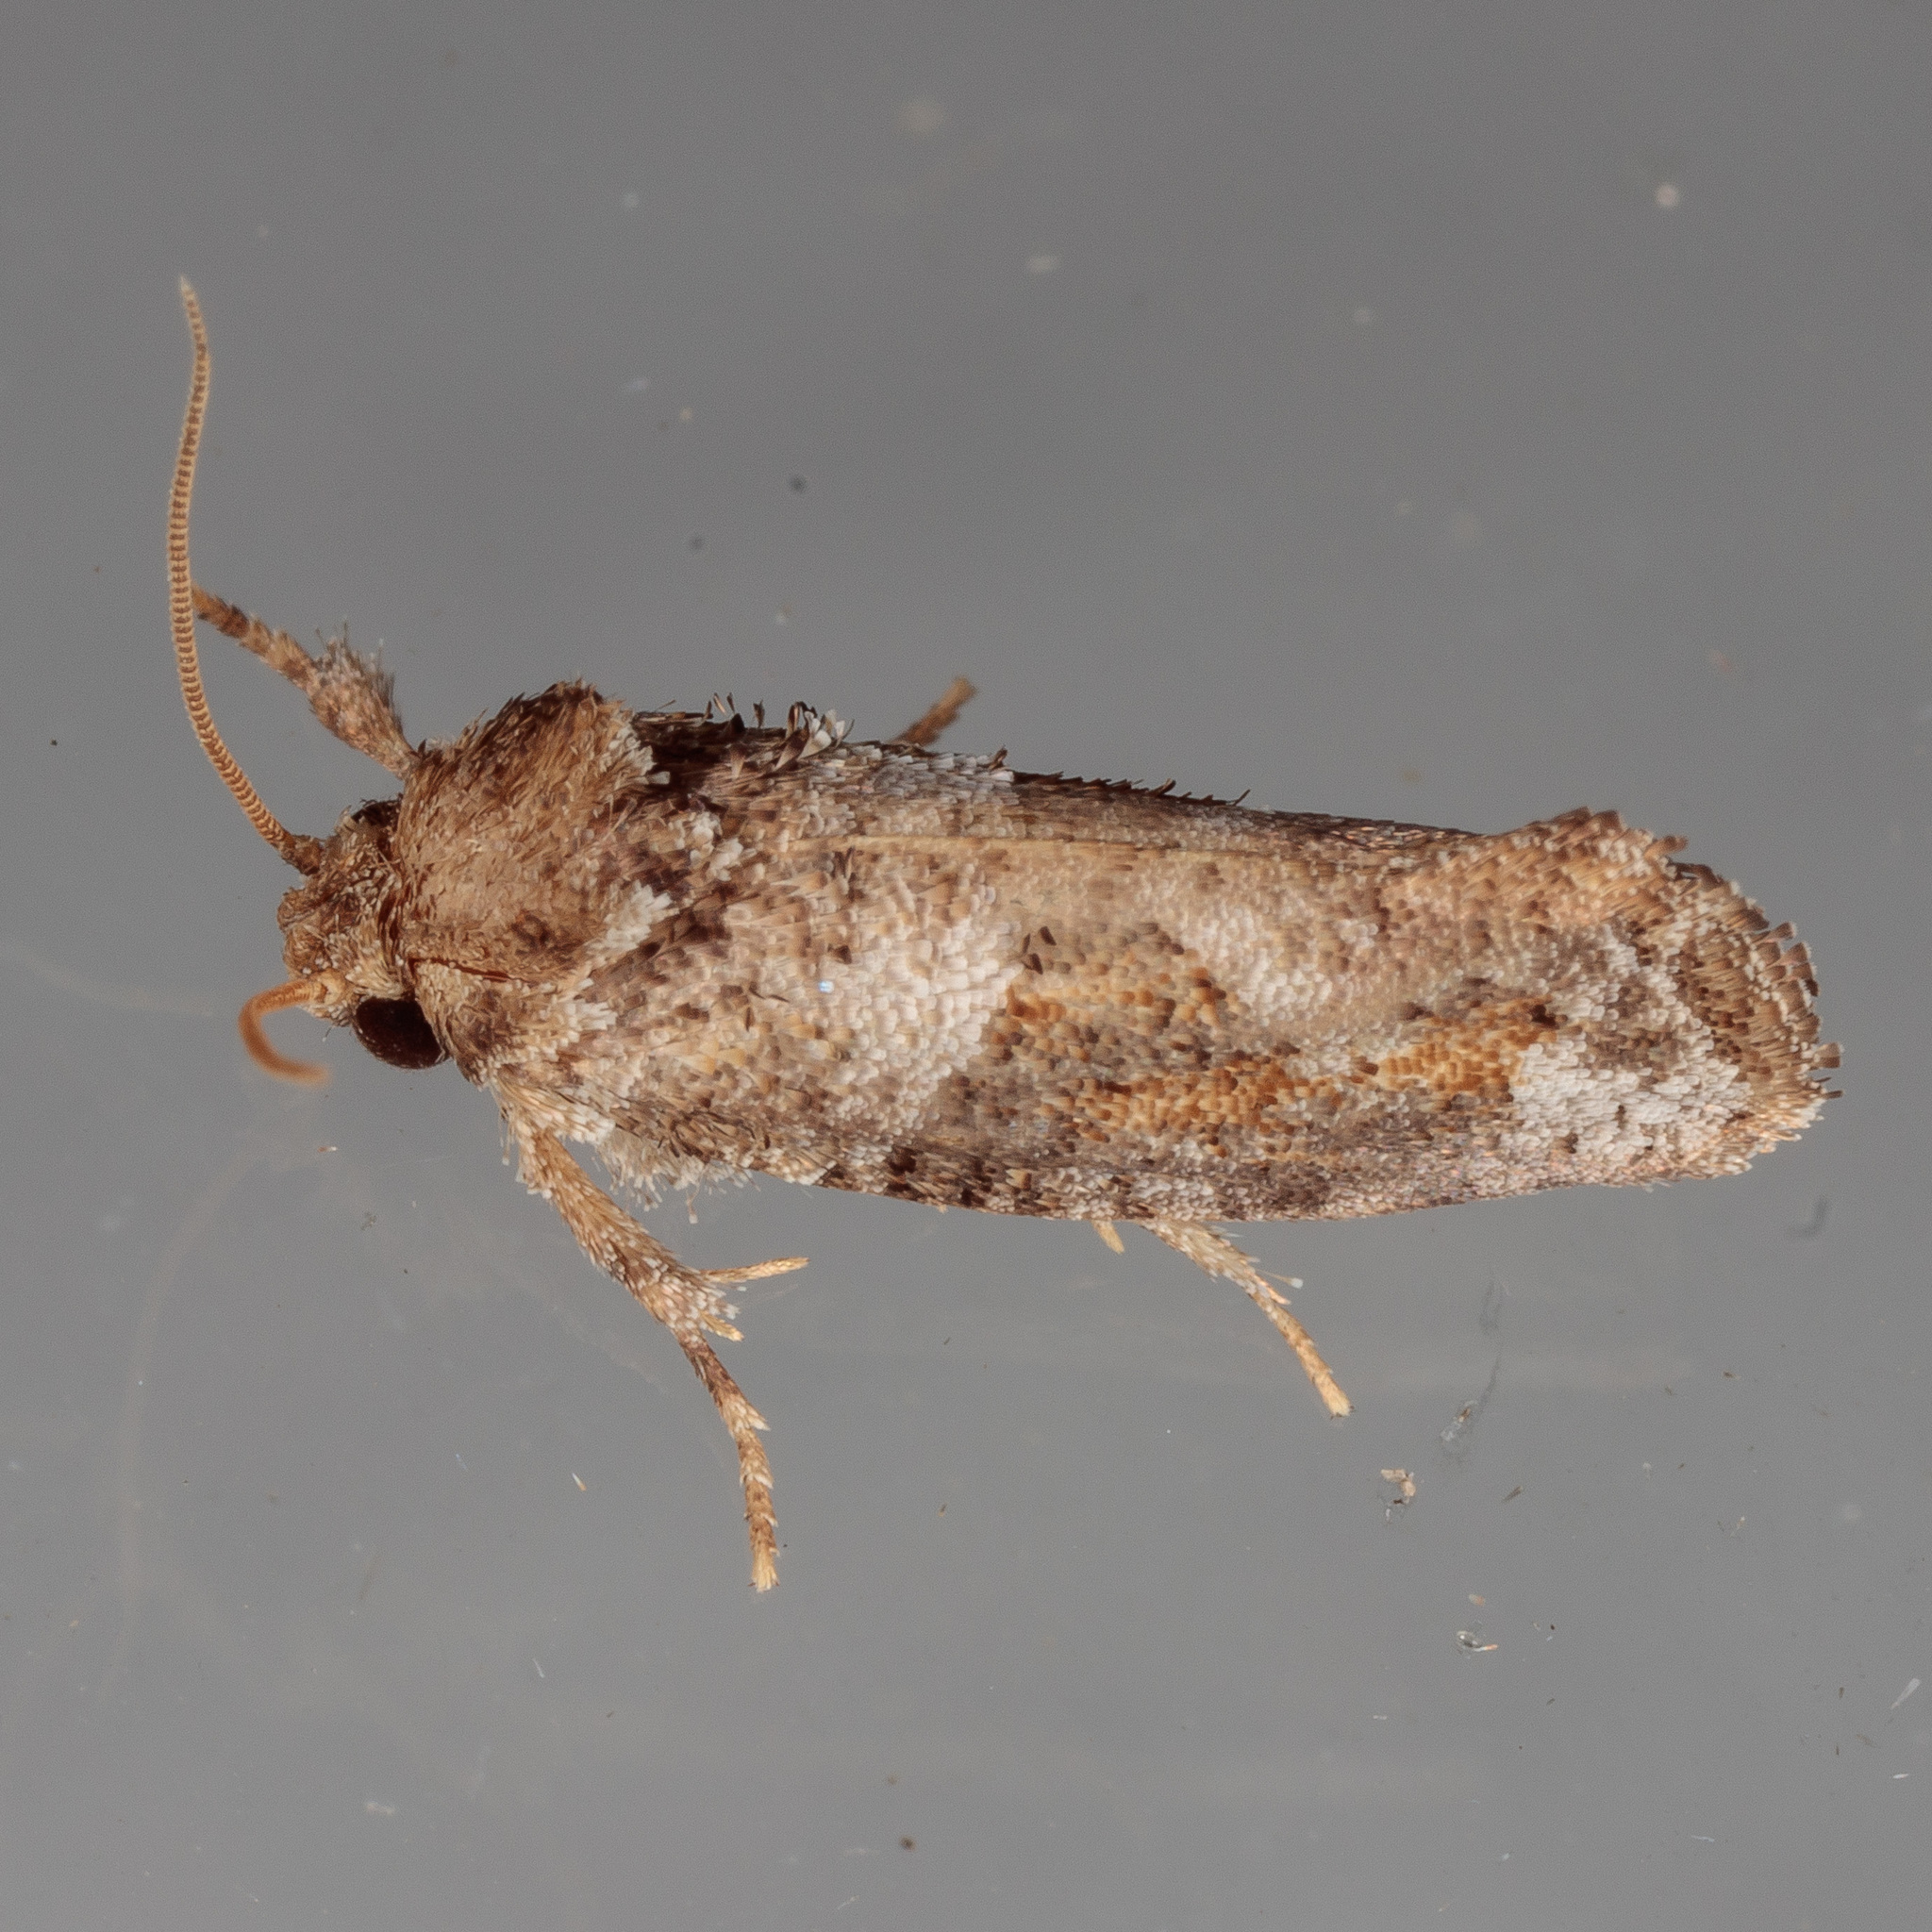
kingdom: Animalia
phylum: Arthropoda
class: Insecta
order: Lepidoptera
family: Tineidae
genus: Acrolophus
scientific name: Acrolophus piger
